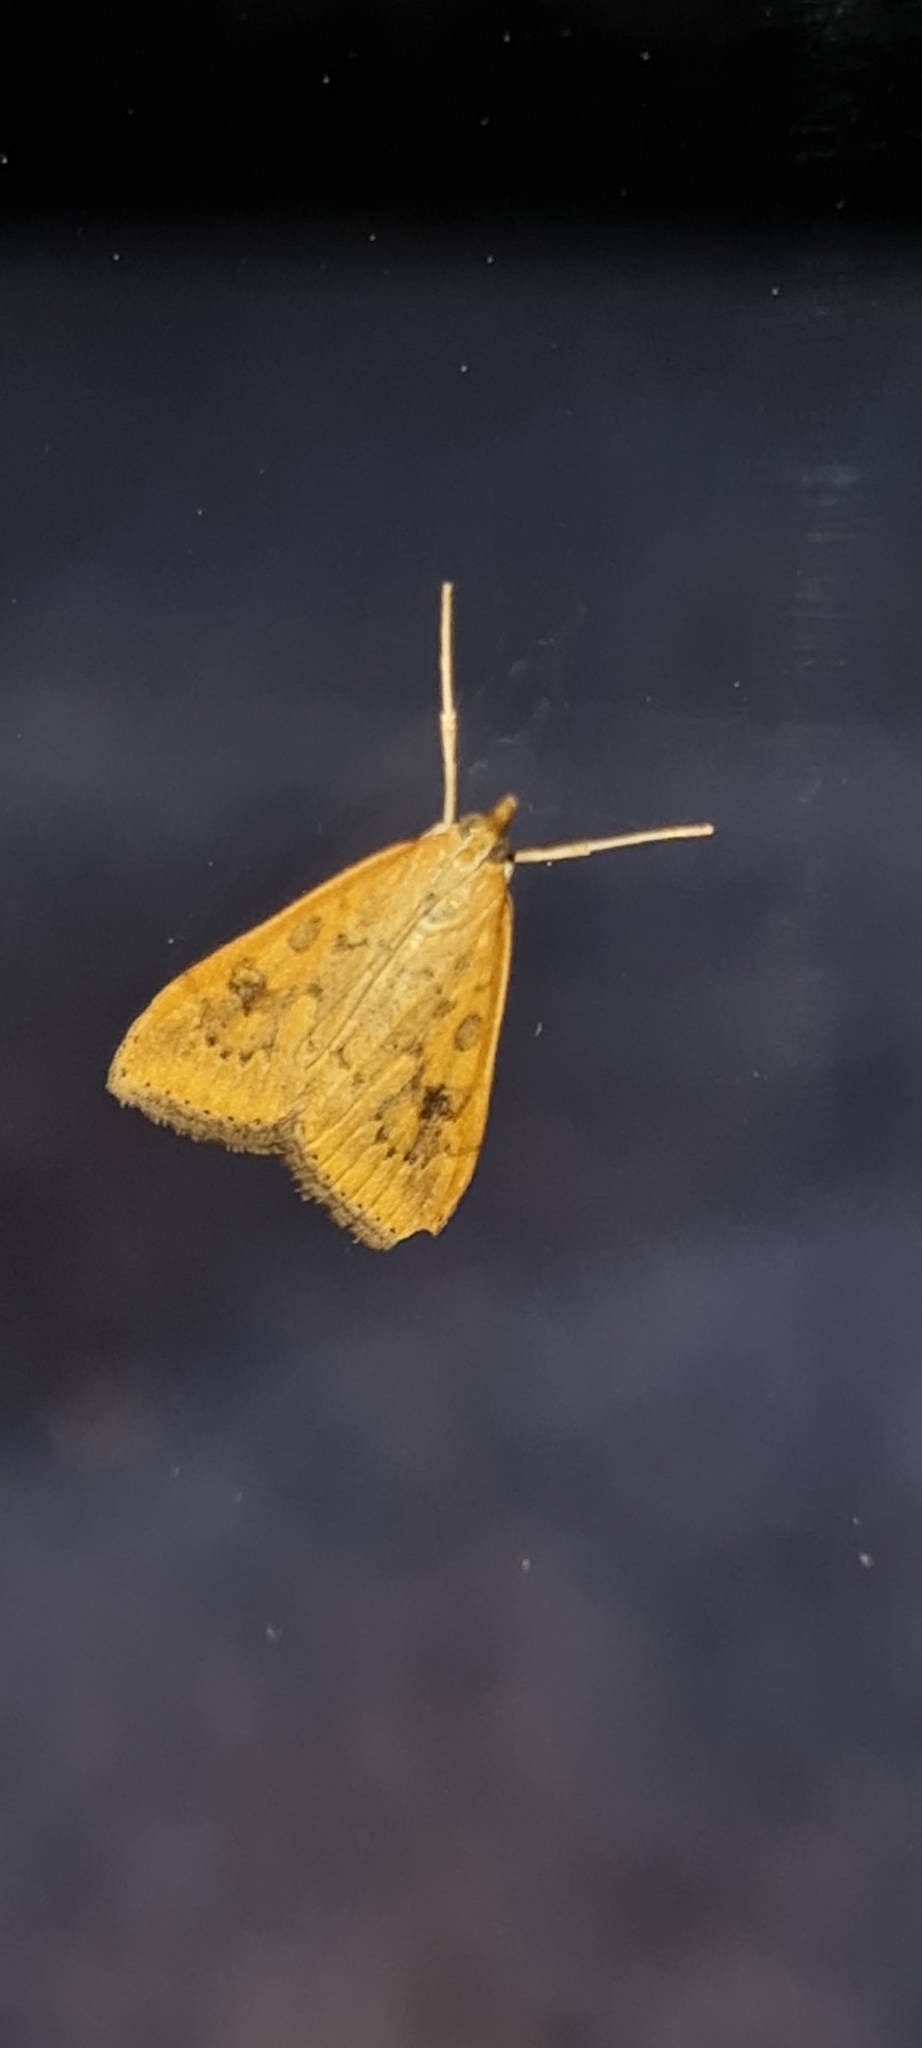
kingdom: Animalia
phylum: Arthropoda
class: Insecta
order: Lepidoptera
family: Crambidae
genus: Udea
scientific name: Udea ferrugalis
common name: Rusty dot
